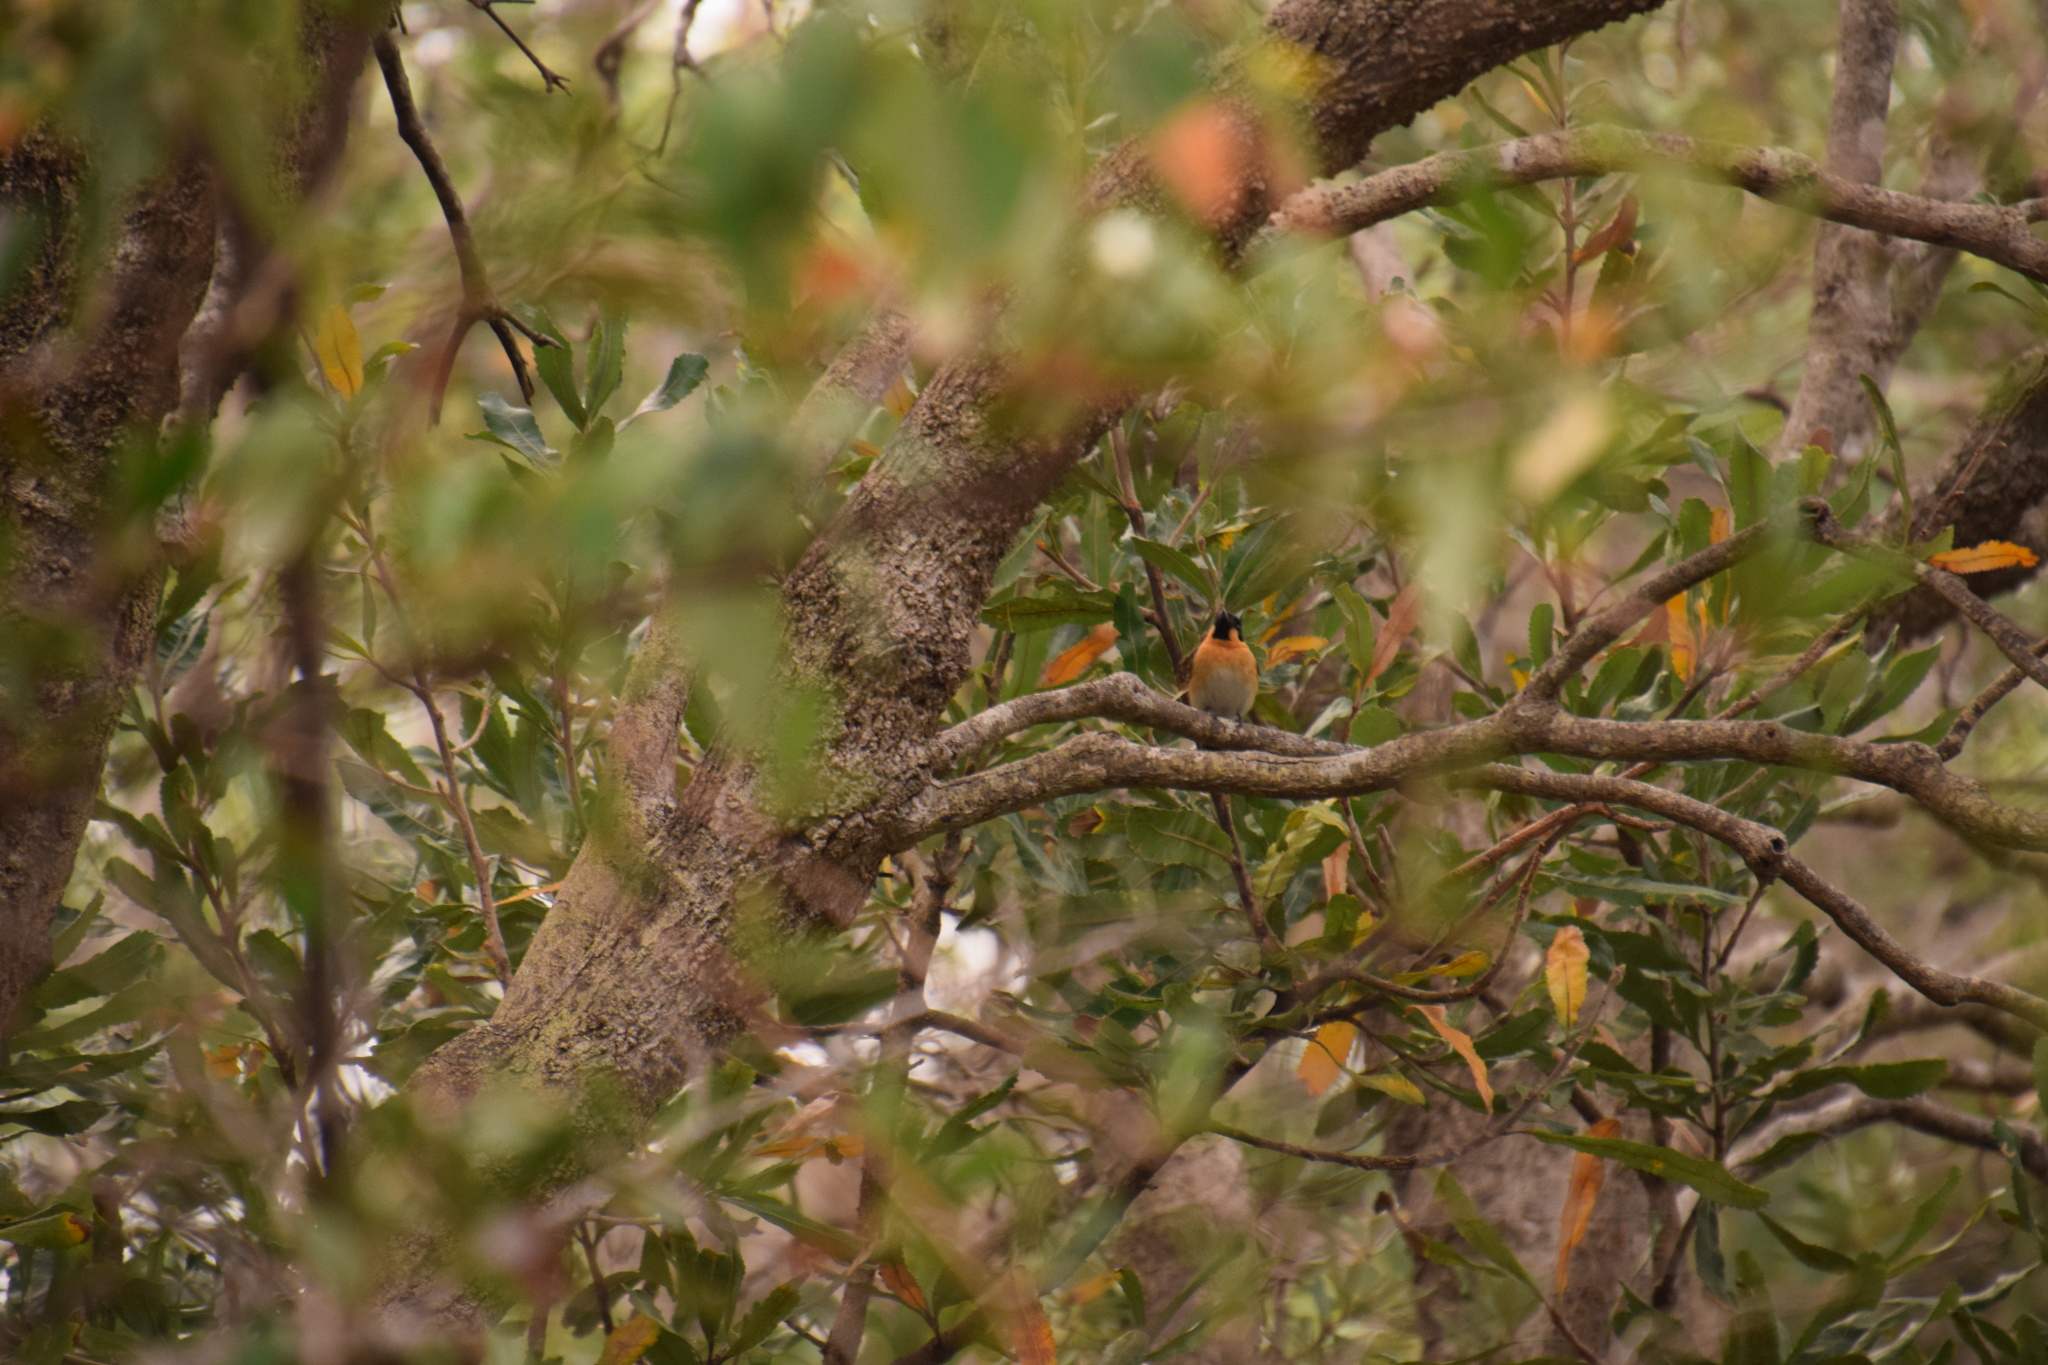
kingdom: Animalia
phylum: Chordata
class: Aves
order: Passeriformes
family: Monarchidae
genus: Symposiachrus
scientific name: Symposiachrus trivirgatus
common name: Spectacled monarch
